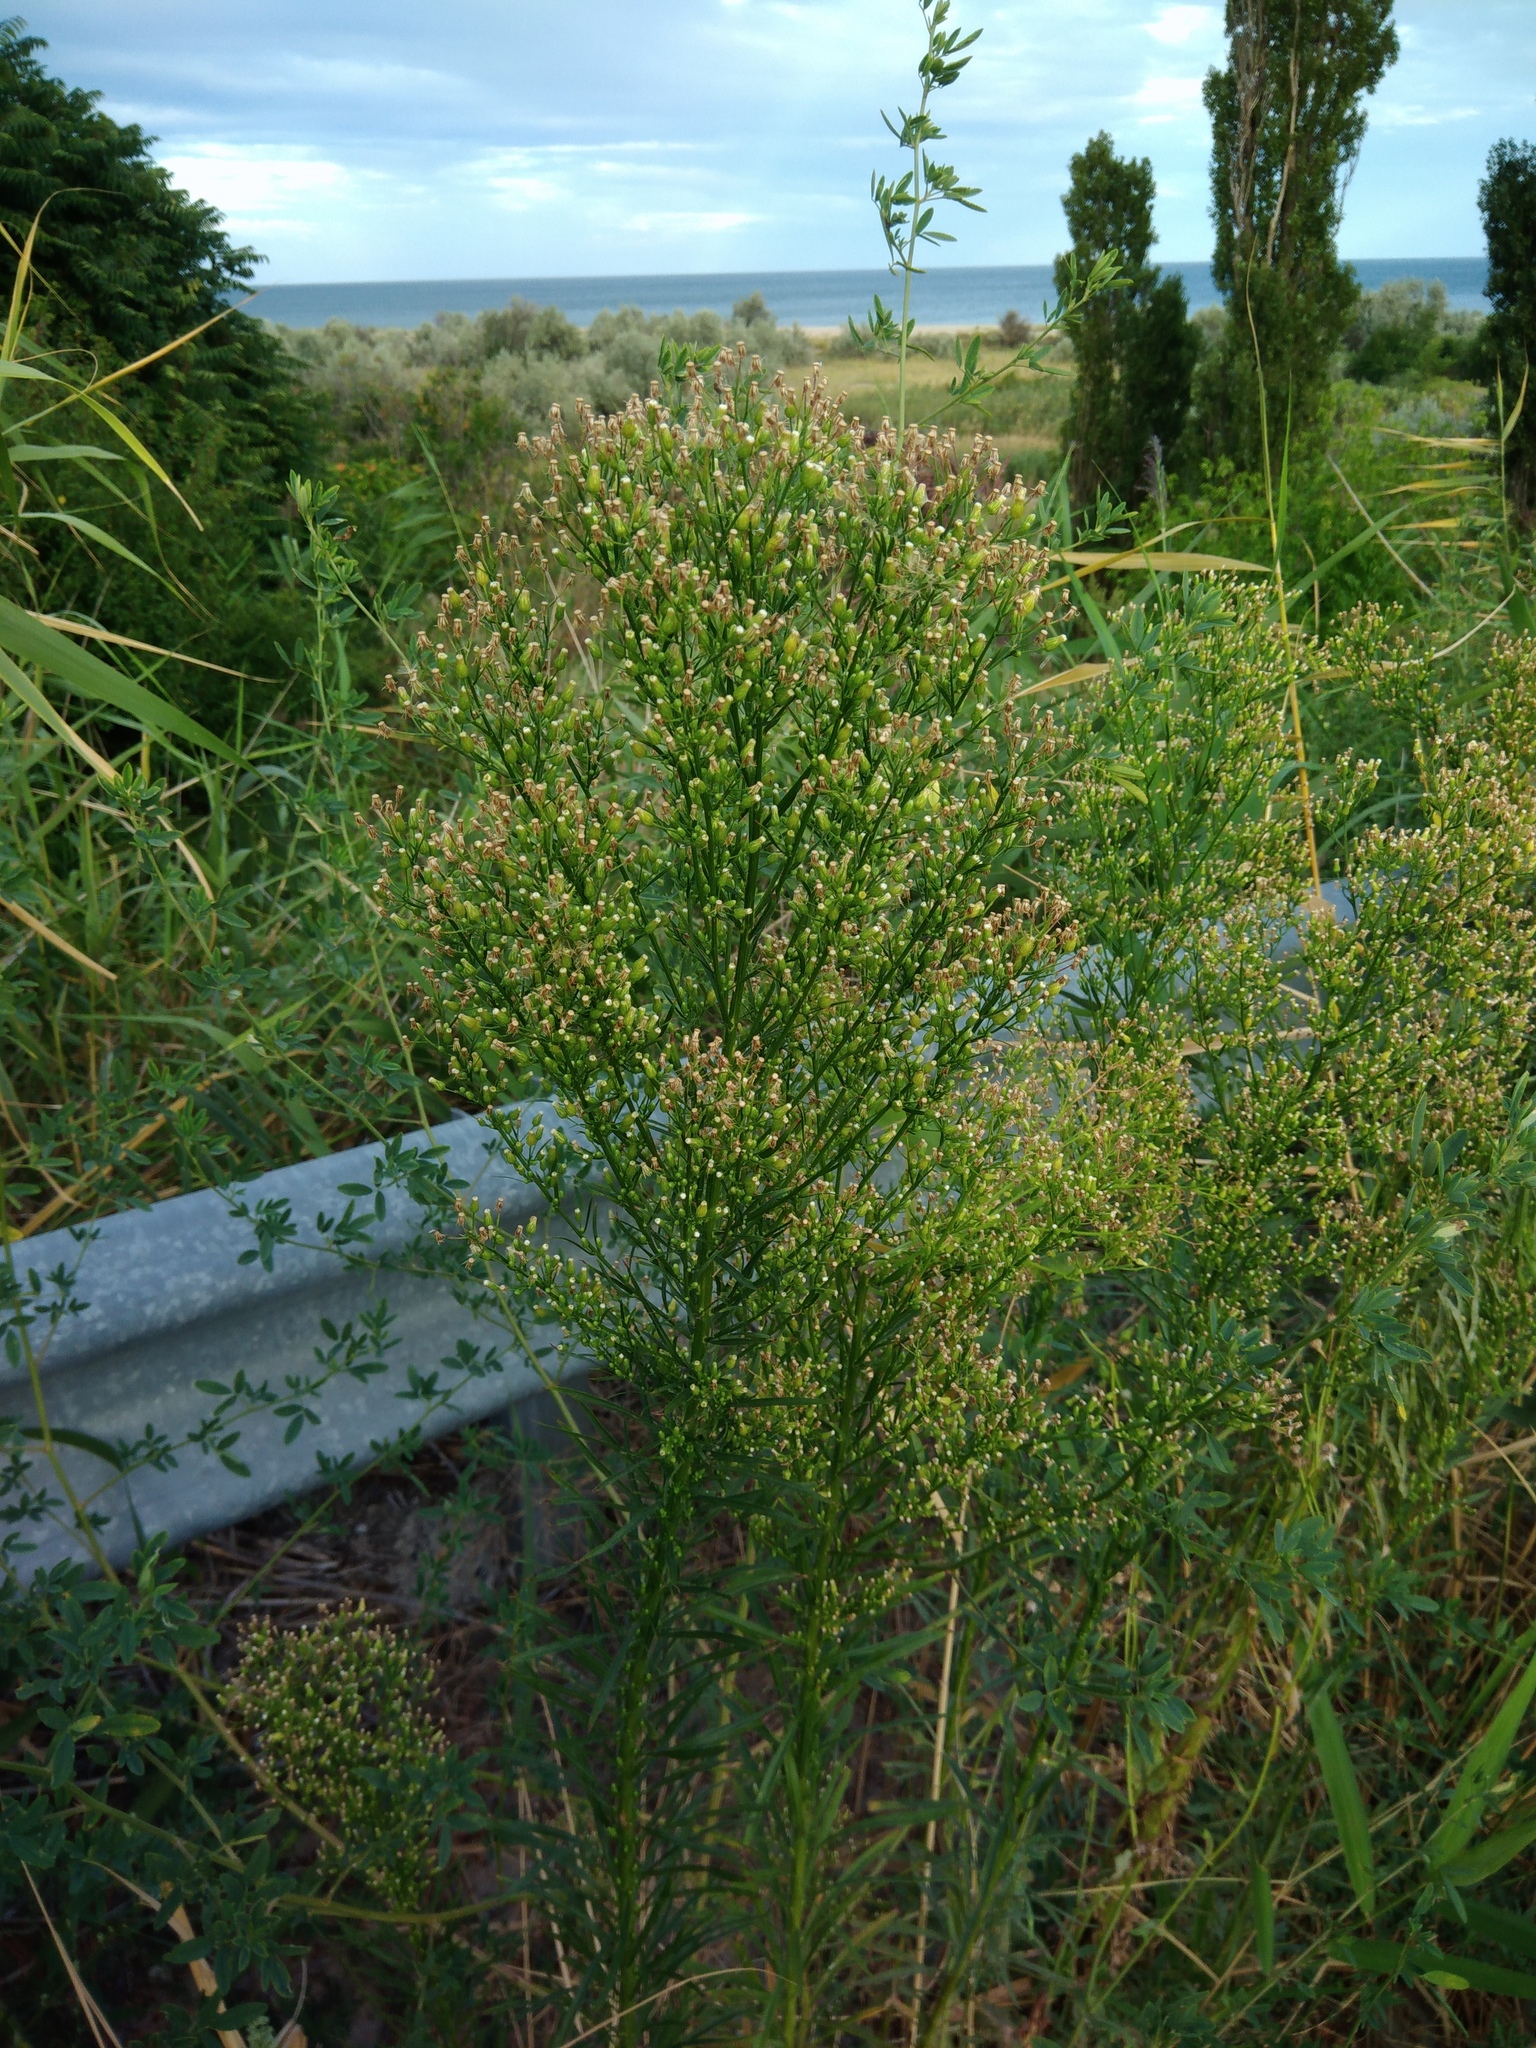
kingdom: Plantae
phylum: Tracheophyta
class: Magnoliopsida
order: Asterales
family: Asteraceae
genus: Erigeron
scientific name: Erigeron canadensis
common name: Canadian fleabane
